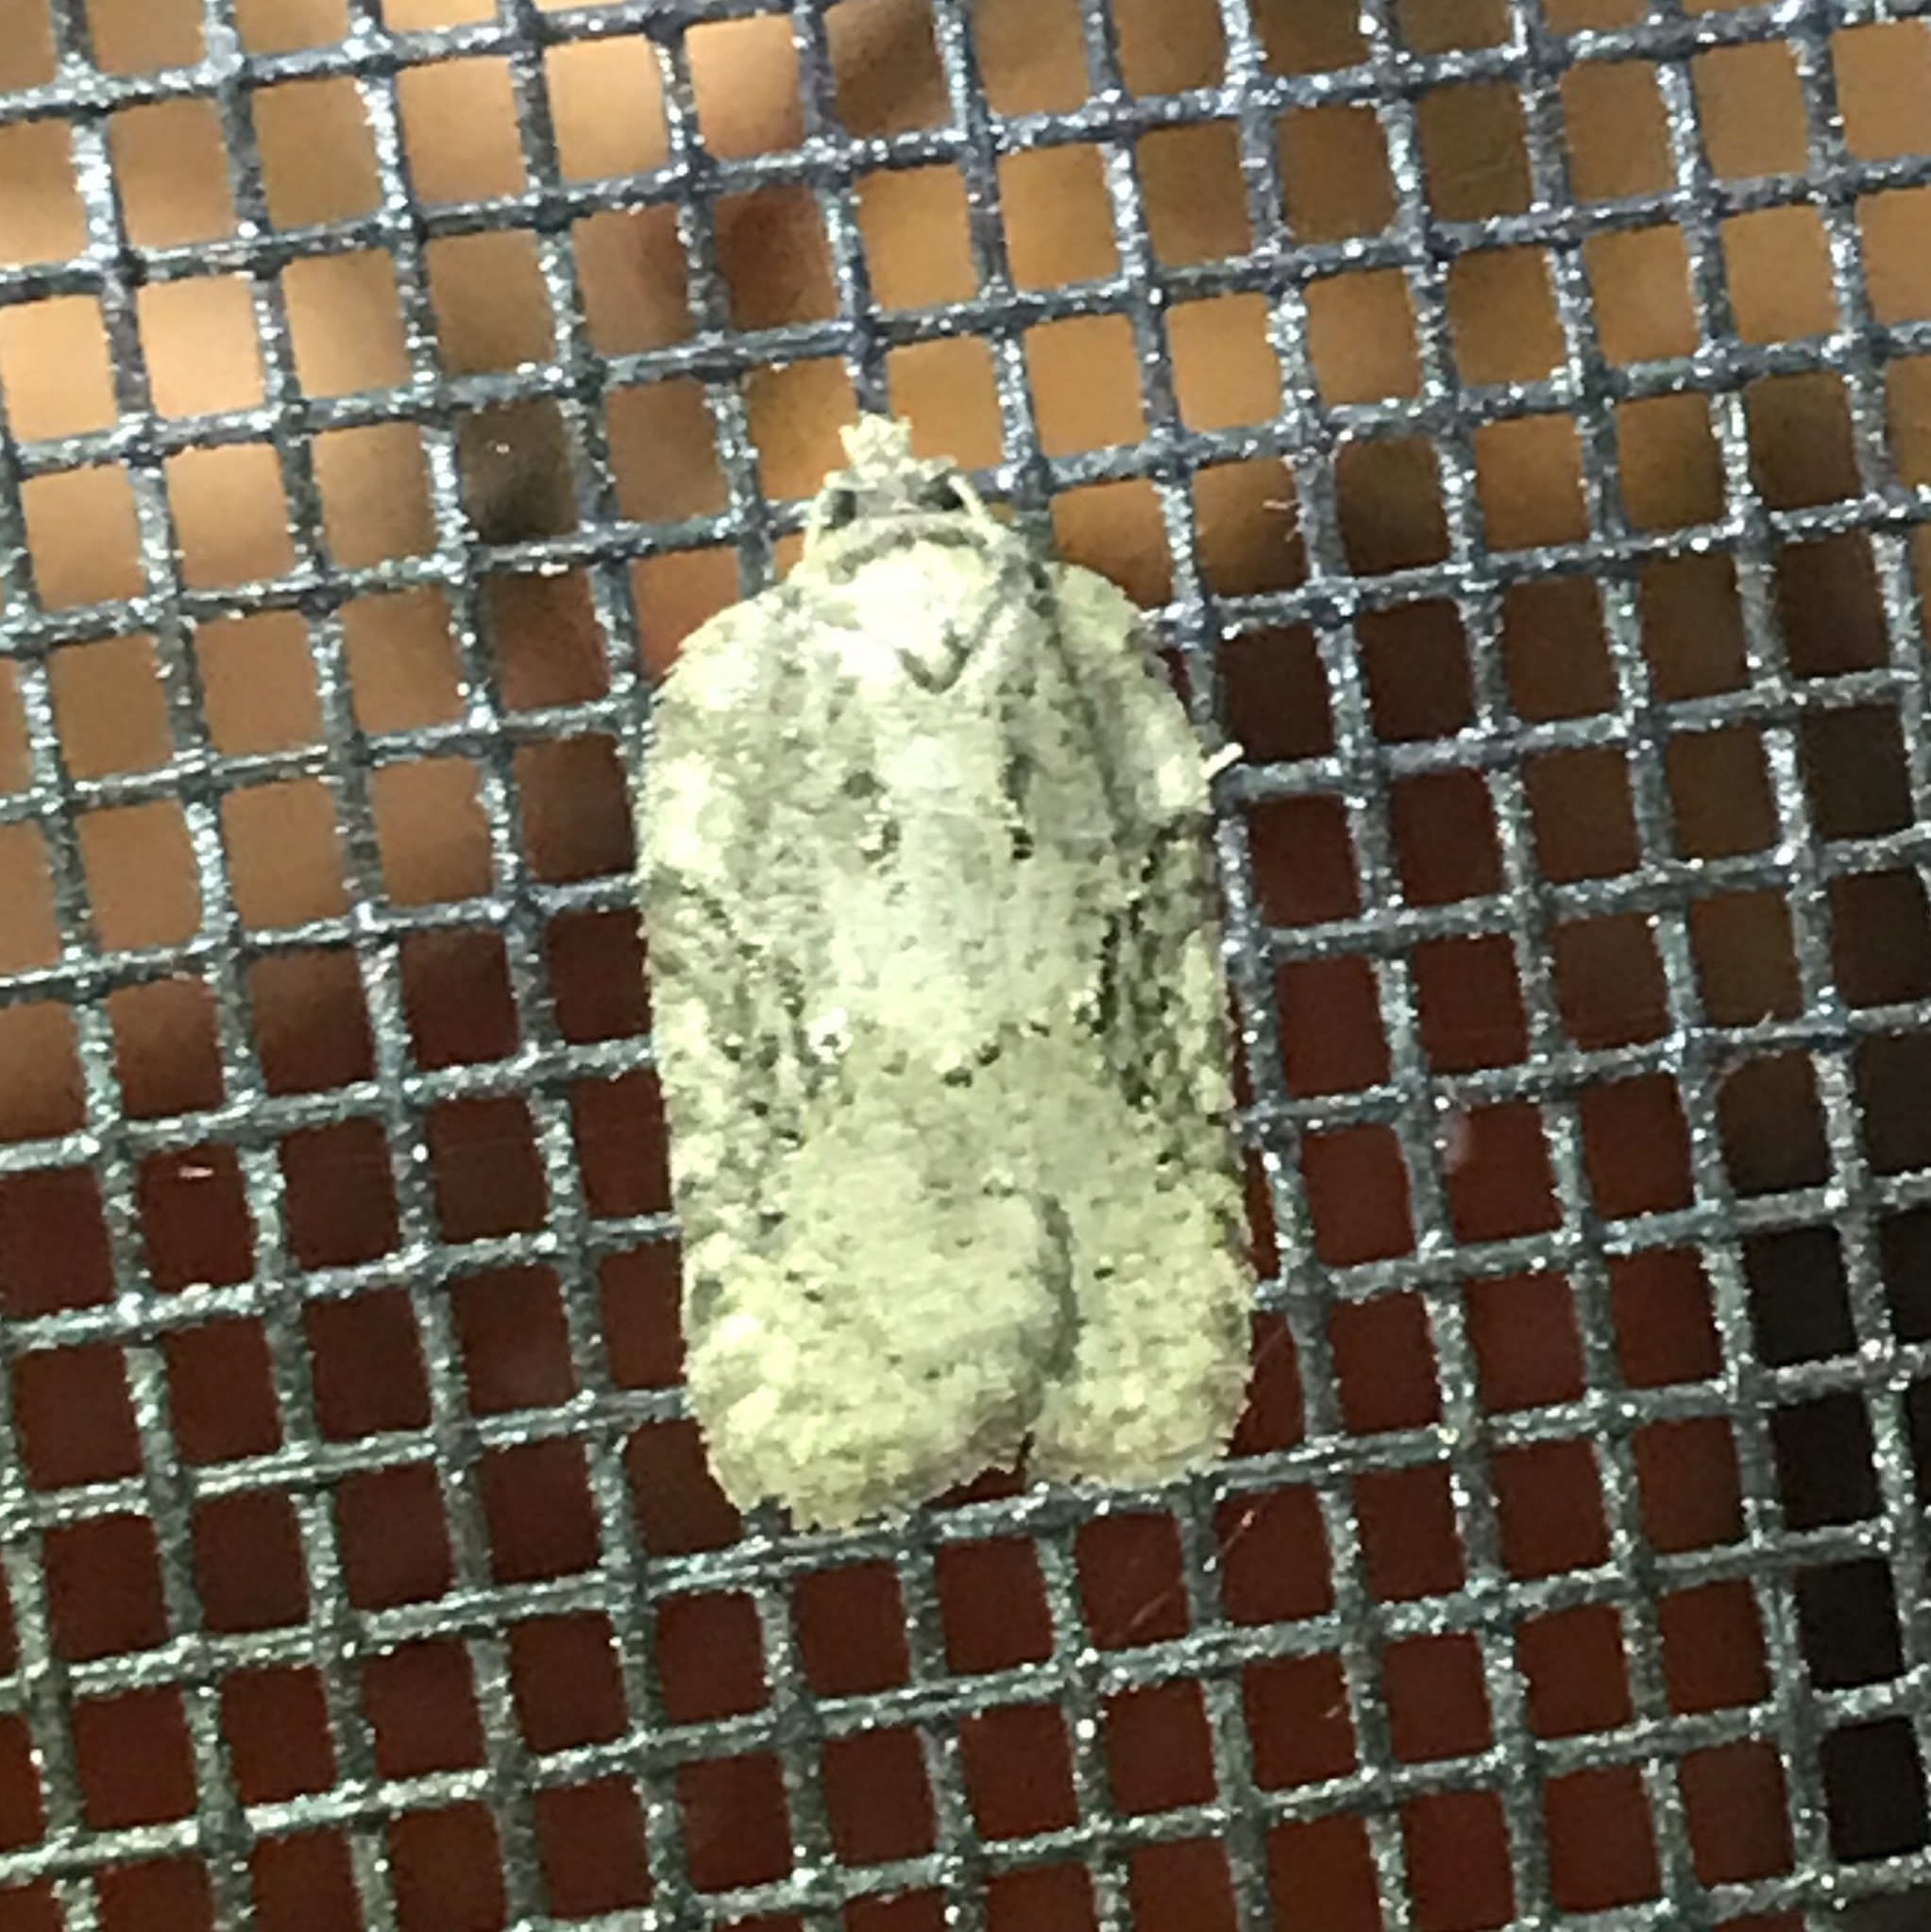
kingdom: Animalia
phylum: Arthropoda
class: Insecta
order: Lepidoptera
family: Tortricidae
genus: Acleris
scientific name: Acleris placidana
